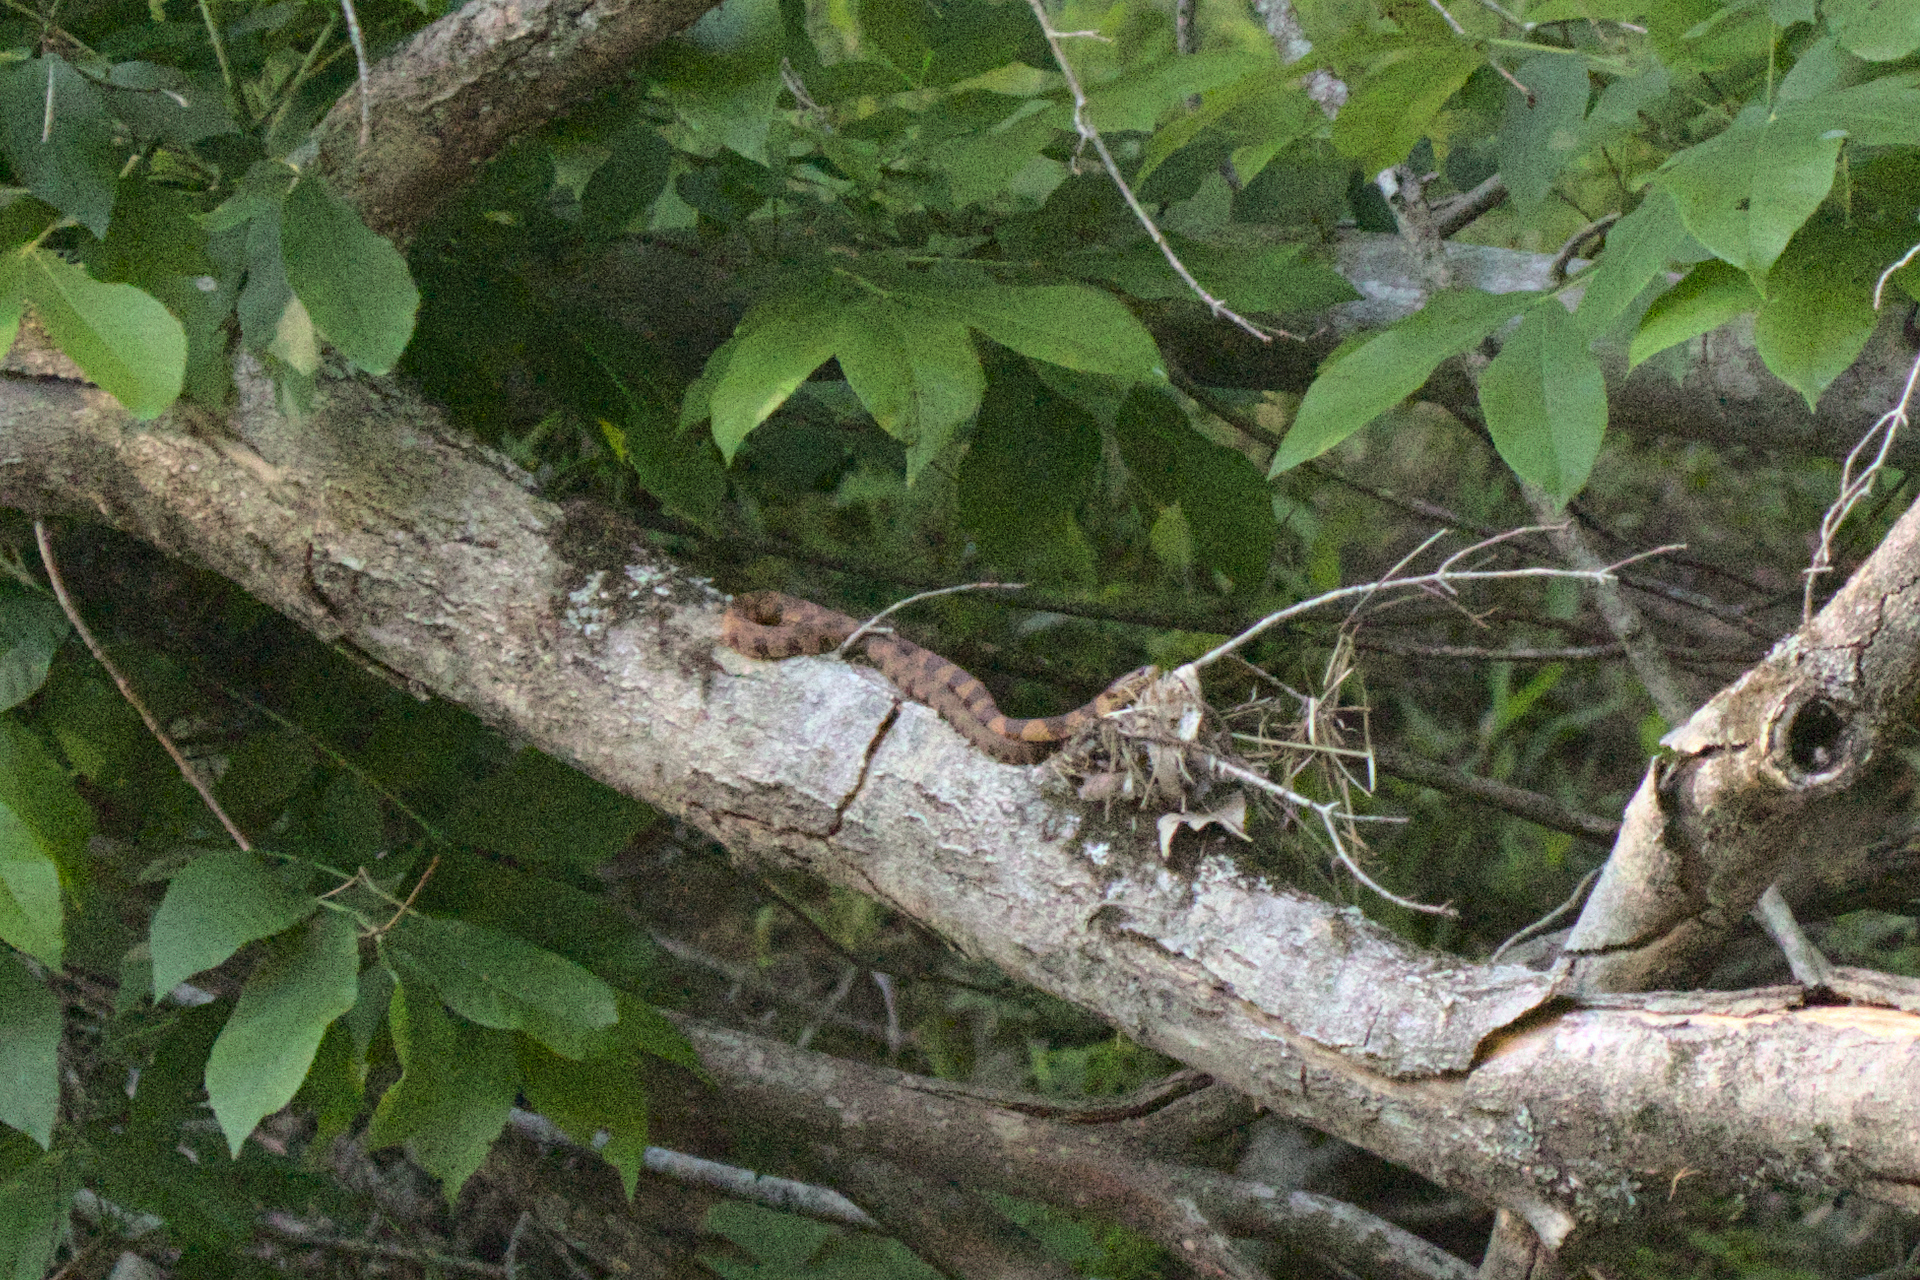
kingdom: Animalia
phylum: Chordata
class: Squamata
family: Colubridae
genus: Nerodia
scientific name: Nerodia sipedon
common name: Northern water snake
